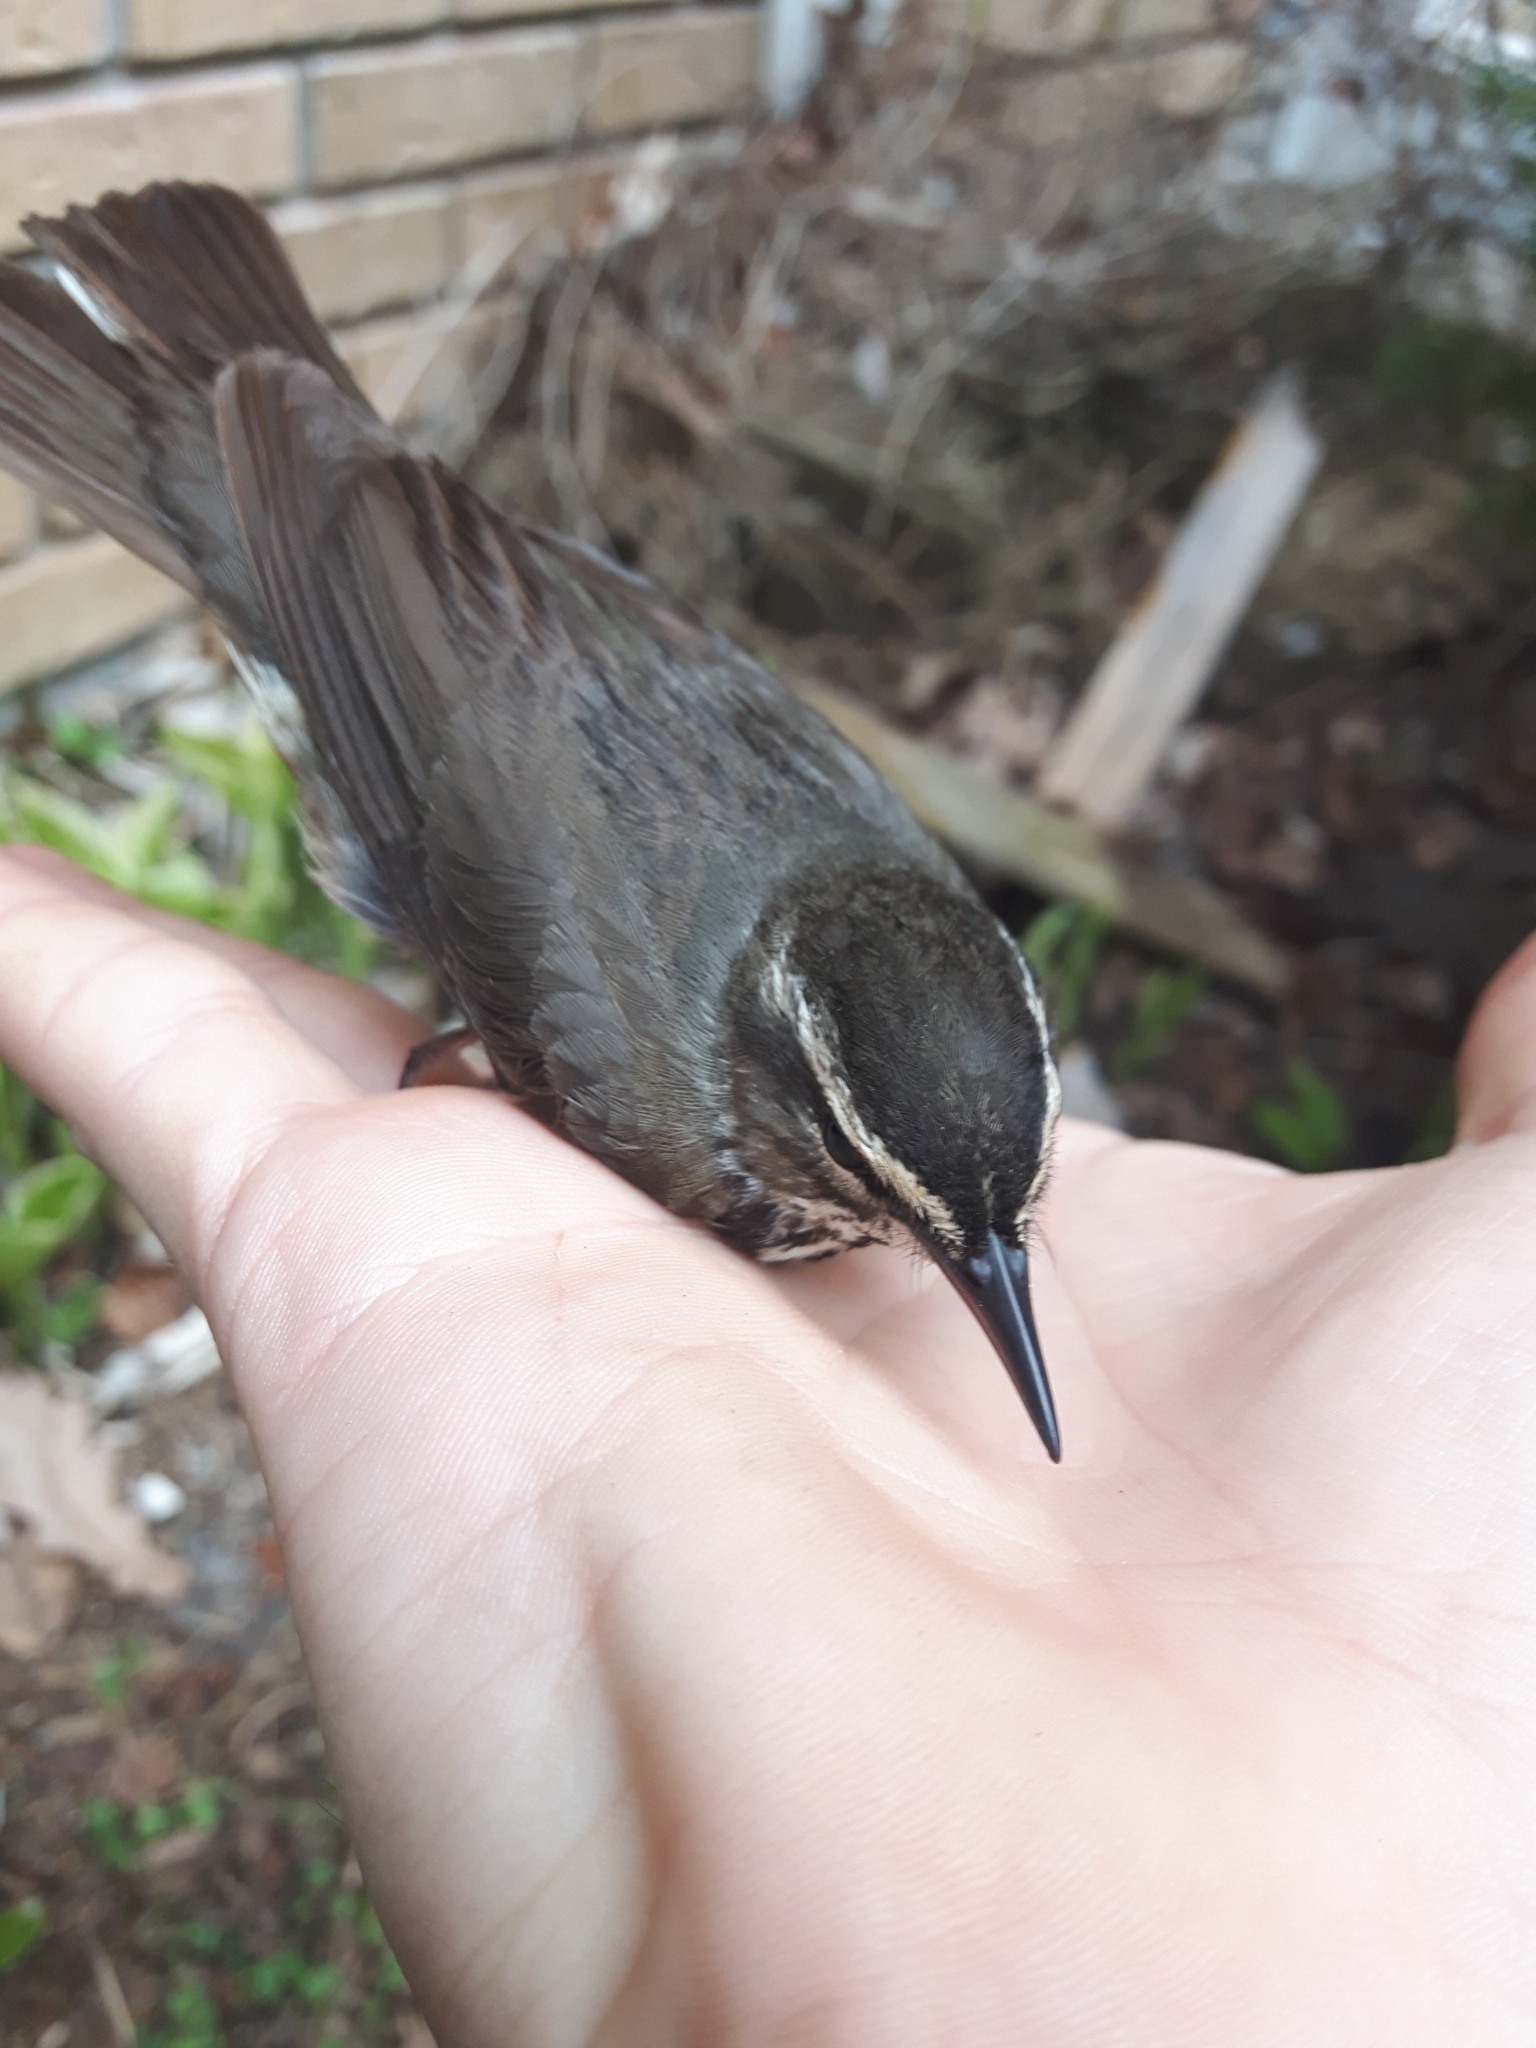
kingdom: Animalia
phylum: Chordata
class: Aves
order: Passeriformes
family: Parulidae
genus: Parkesia
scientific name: Parkesia noveboracensis
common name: Northern waterthrush
